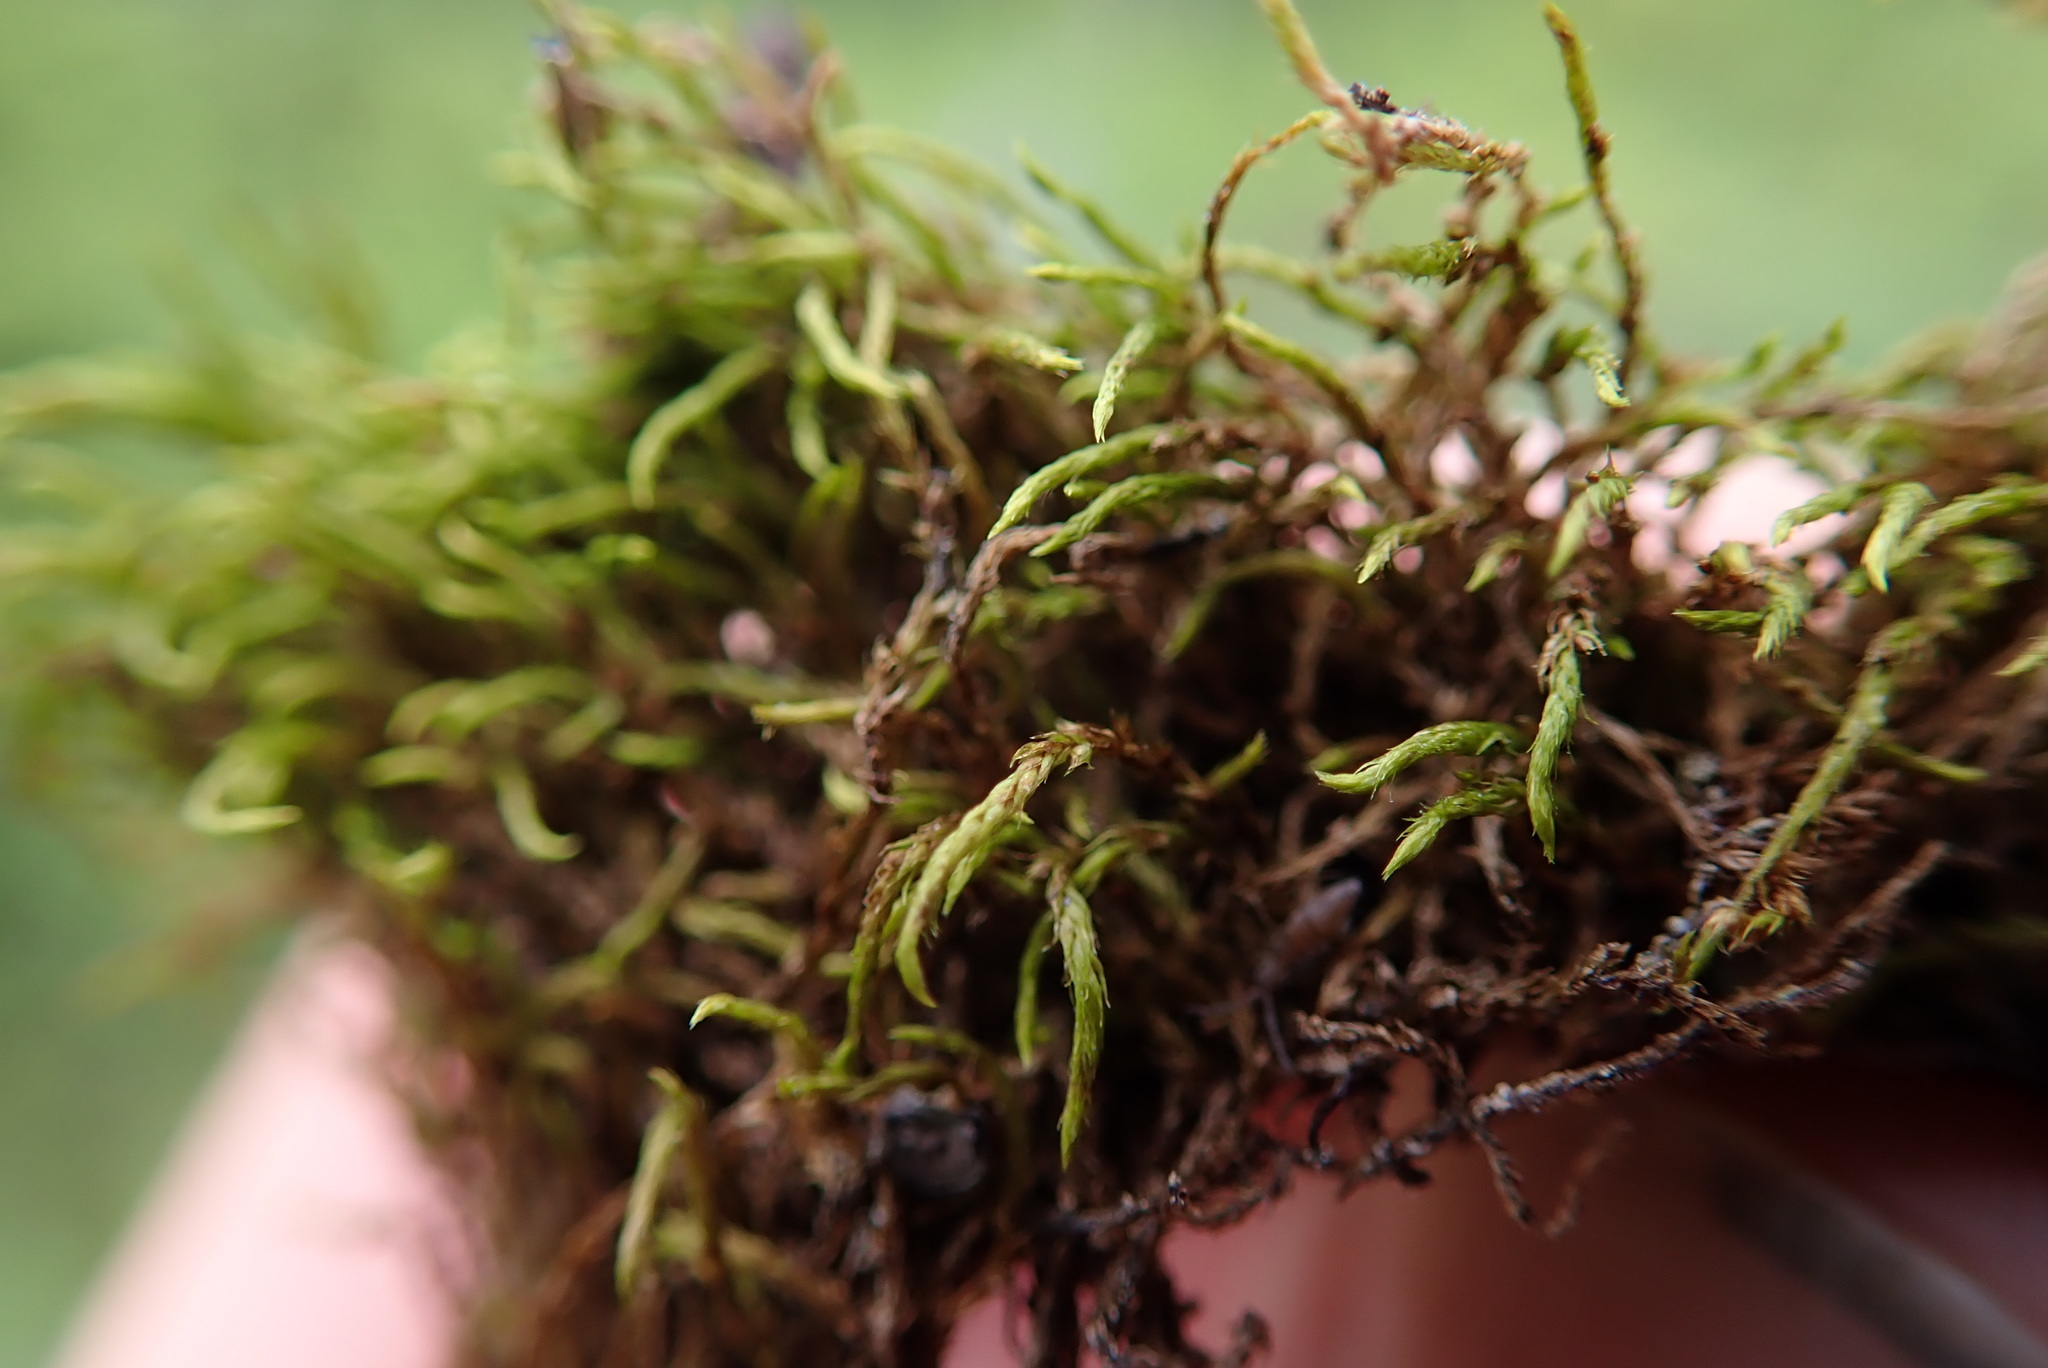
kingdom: Plantae
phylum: Bryophyta
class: Bryopsida
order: Hypnales
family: Pseudoleskeaceae
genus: Lescuraea
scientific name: Lescuraea stenophylla
